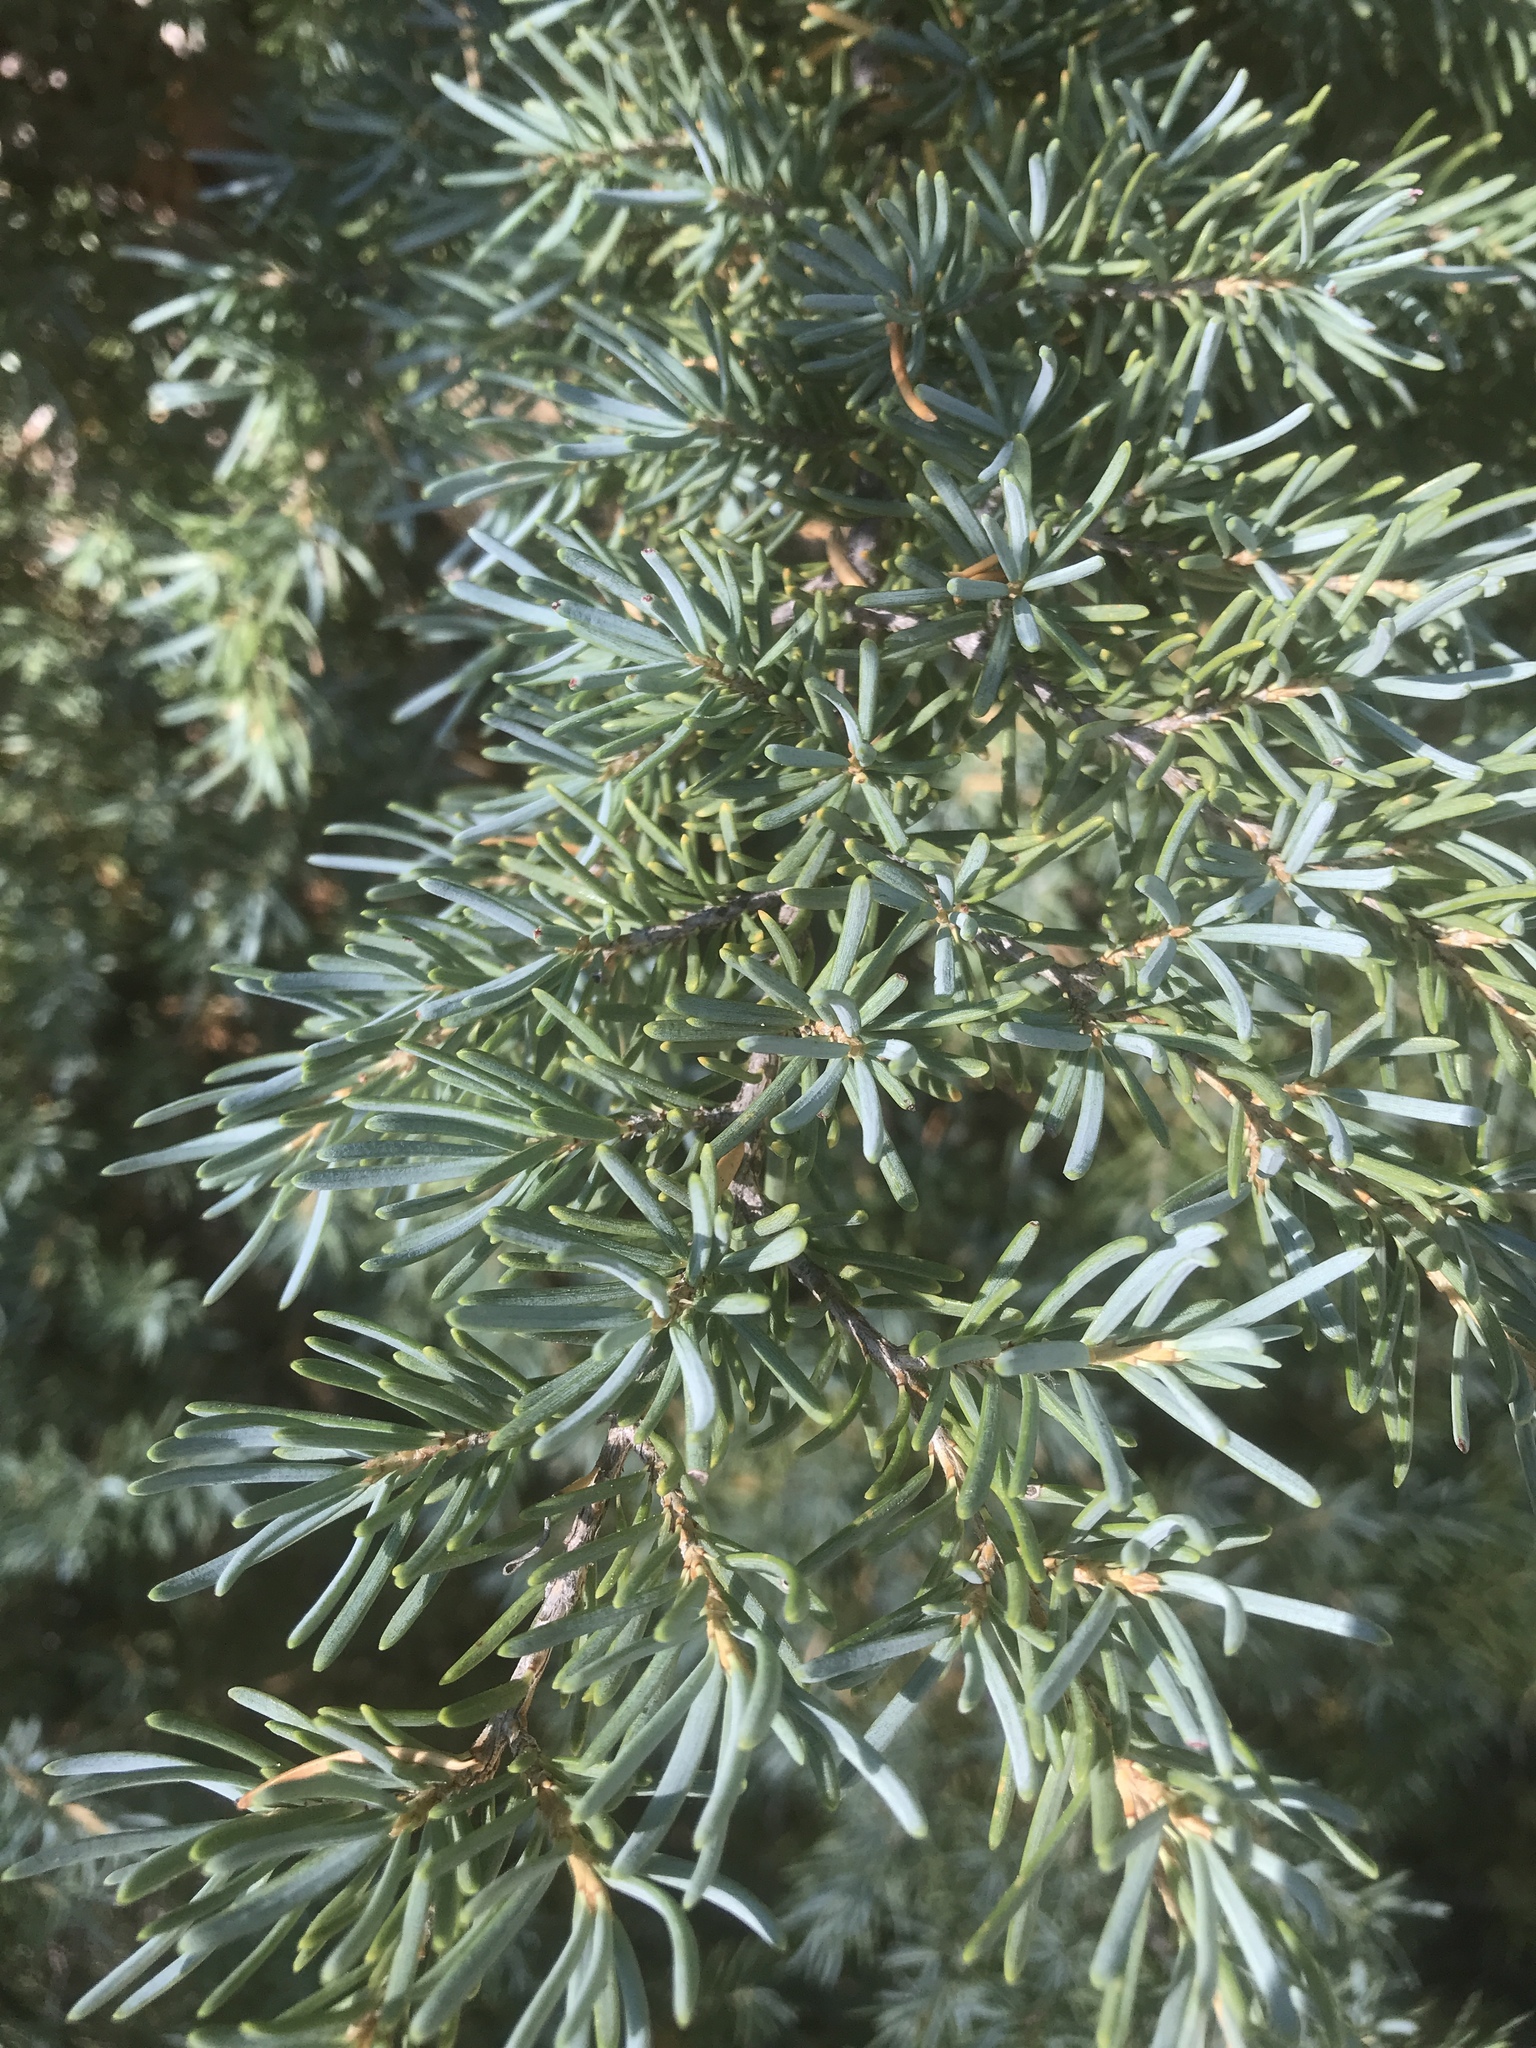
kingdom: Plantae
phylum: Tracheophyta
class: Pinopsida
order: Pinales
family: Pinaceae
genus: Tsuga
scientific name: Tsuga mertensiana
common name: Mountain hemlock
